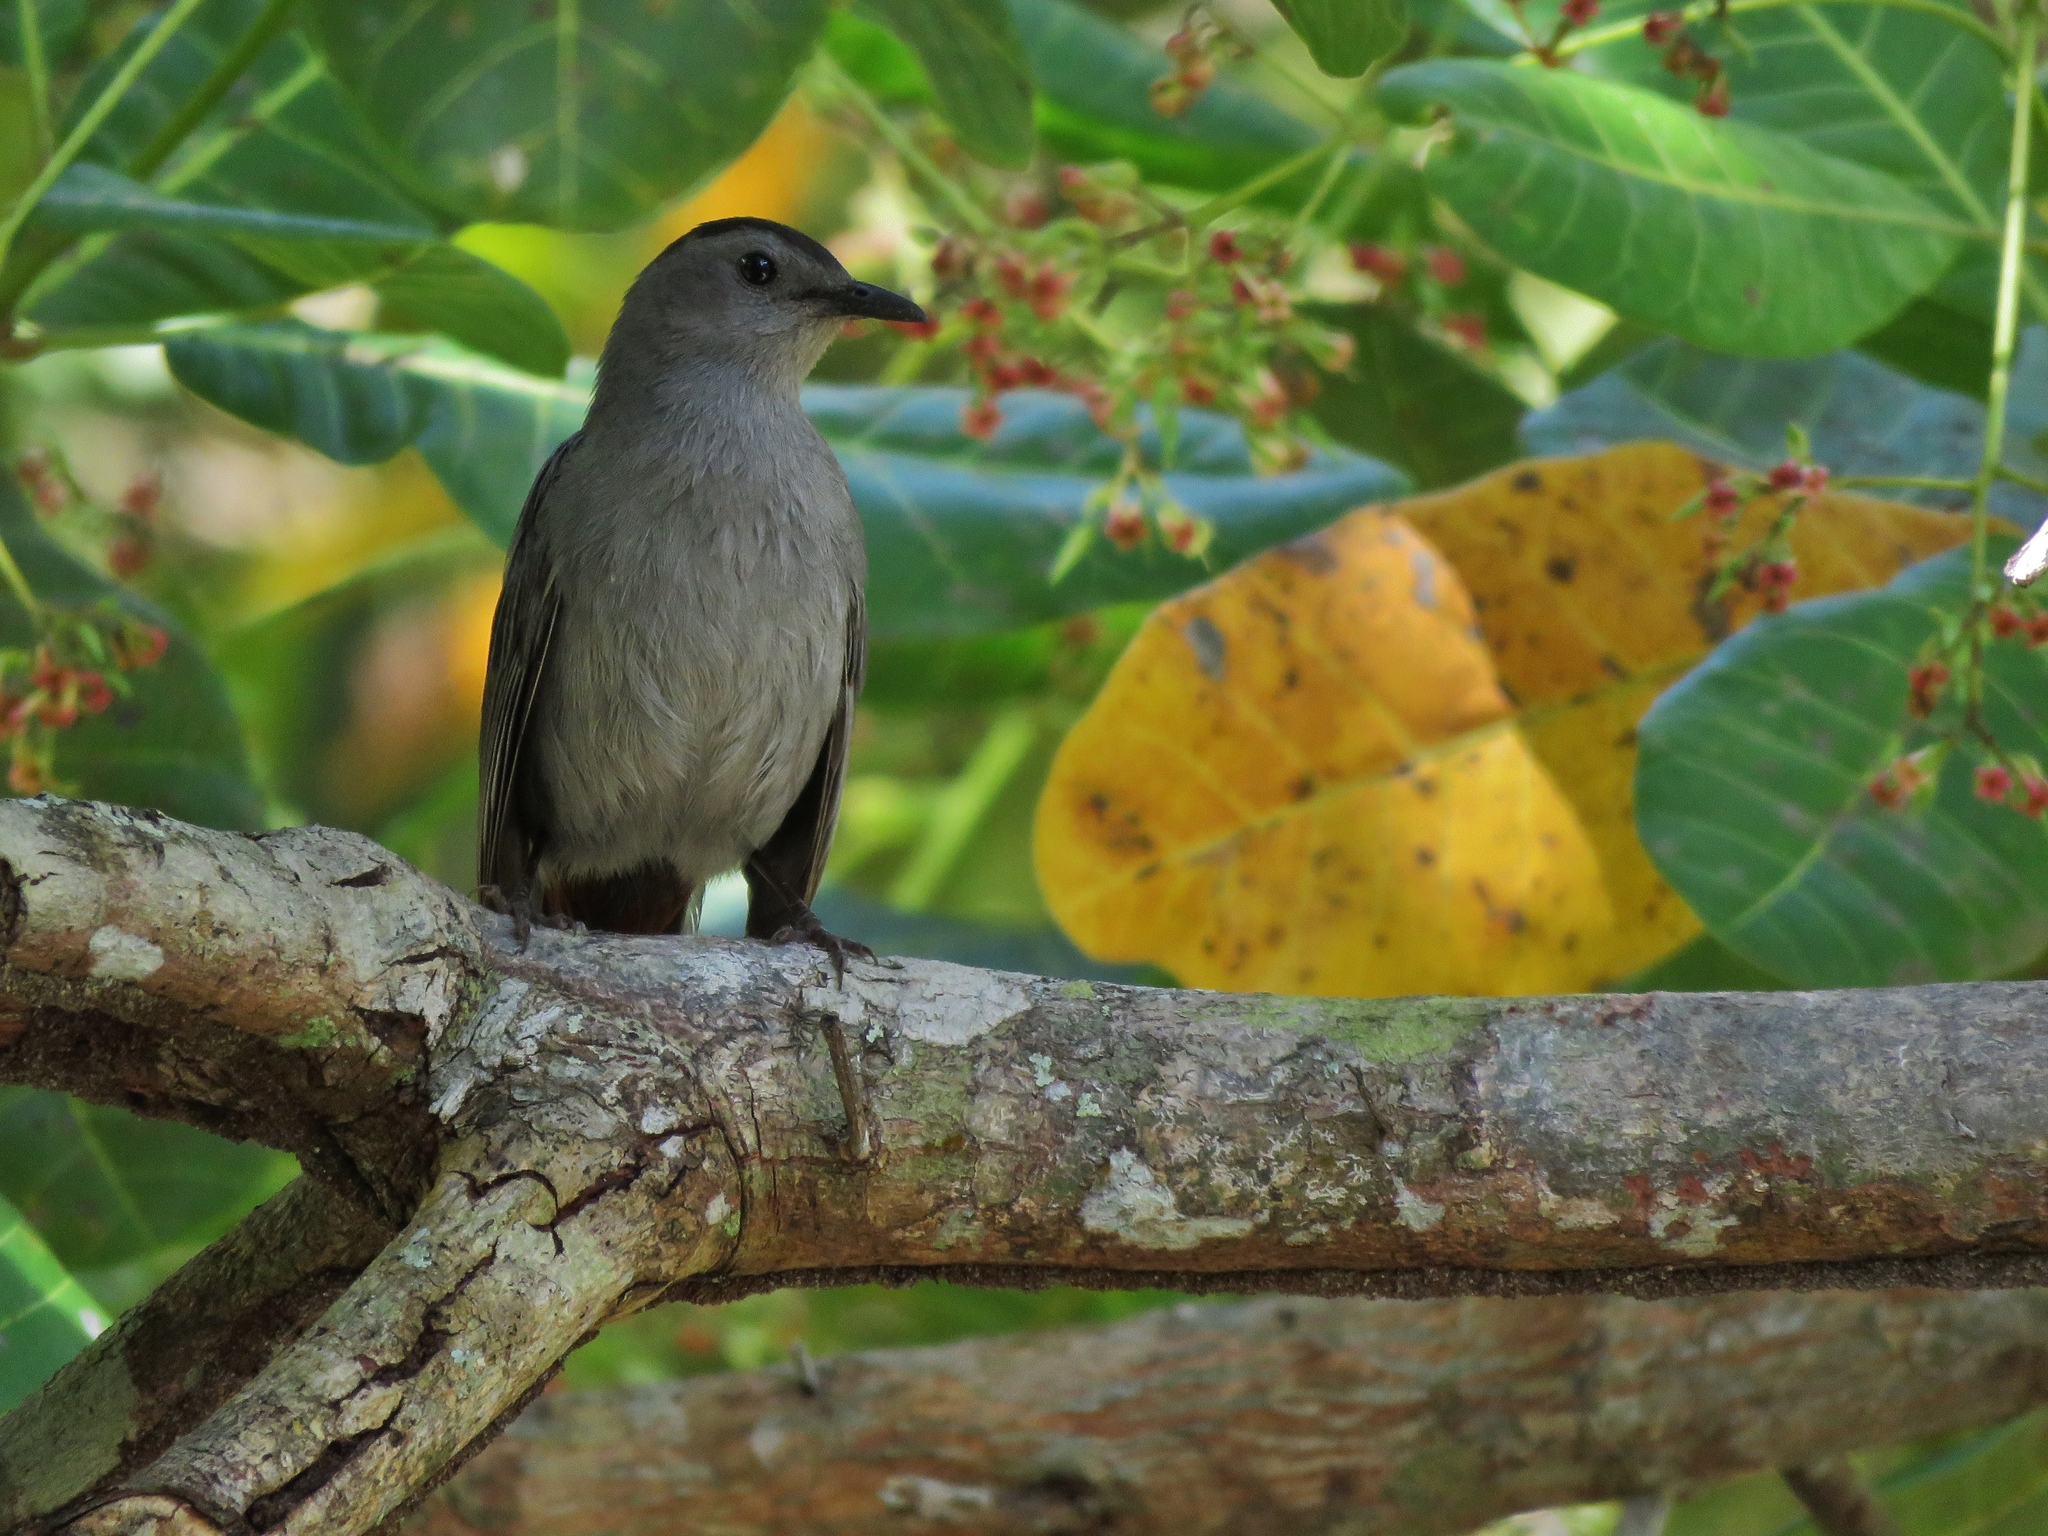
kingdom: Animalia
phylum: Chordata
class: Aves
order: Passeriformes
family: Mimidae
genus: Dumetella
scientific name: Dumetella carolinensis
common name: Gray catbird
